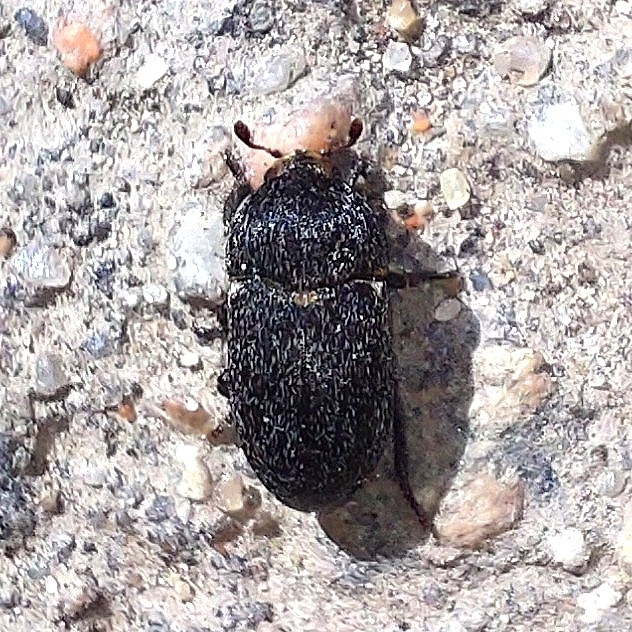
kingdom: Animalia
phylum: Arthropoda
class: Insecta
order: Coleoptera
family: Dermestidae
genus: Dermestes
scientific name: Dermestes laniarius
